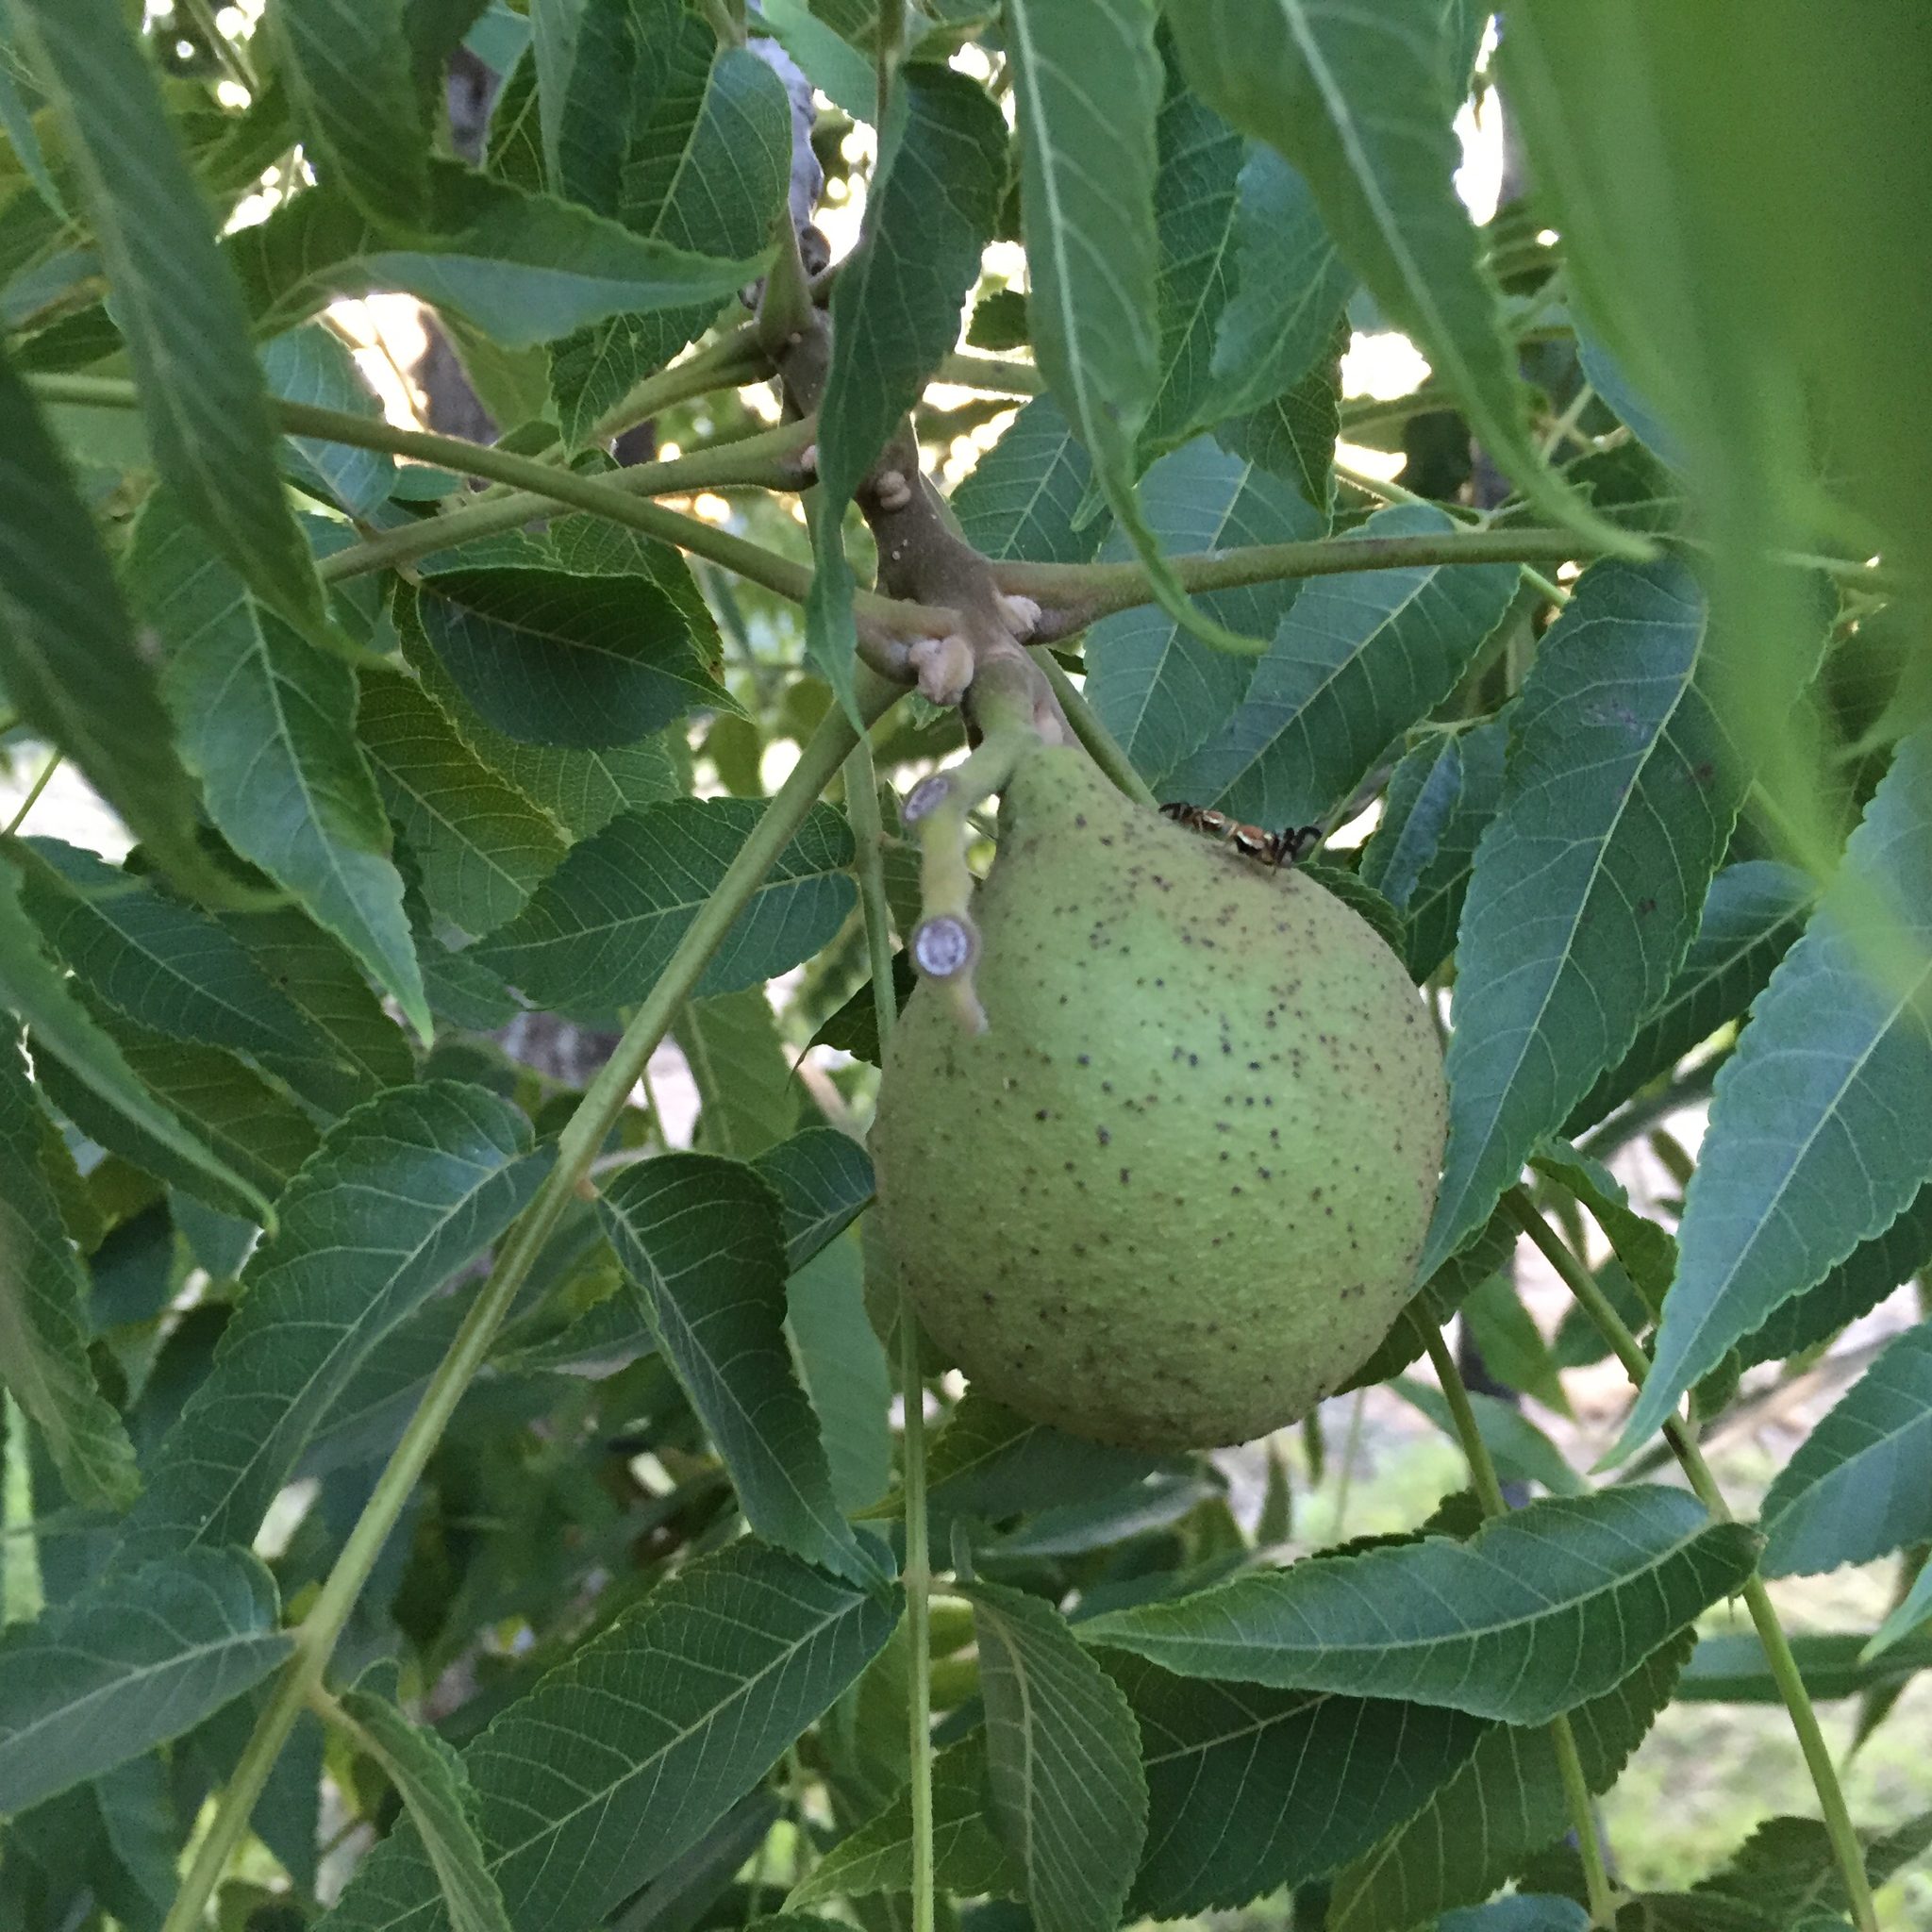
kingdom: Animalia
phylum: Arthropoda
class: Insecta
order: Diptera
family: Tephritidae
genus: Rhagoletis
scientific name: Rhagoletis completa
